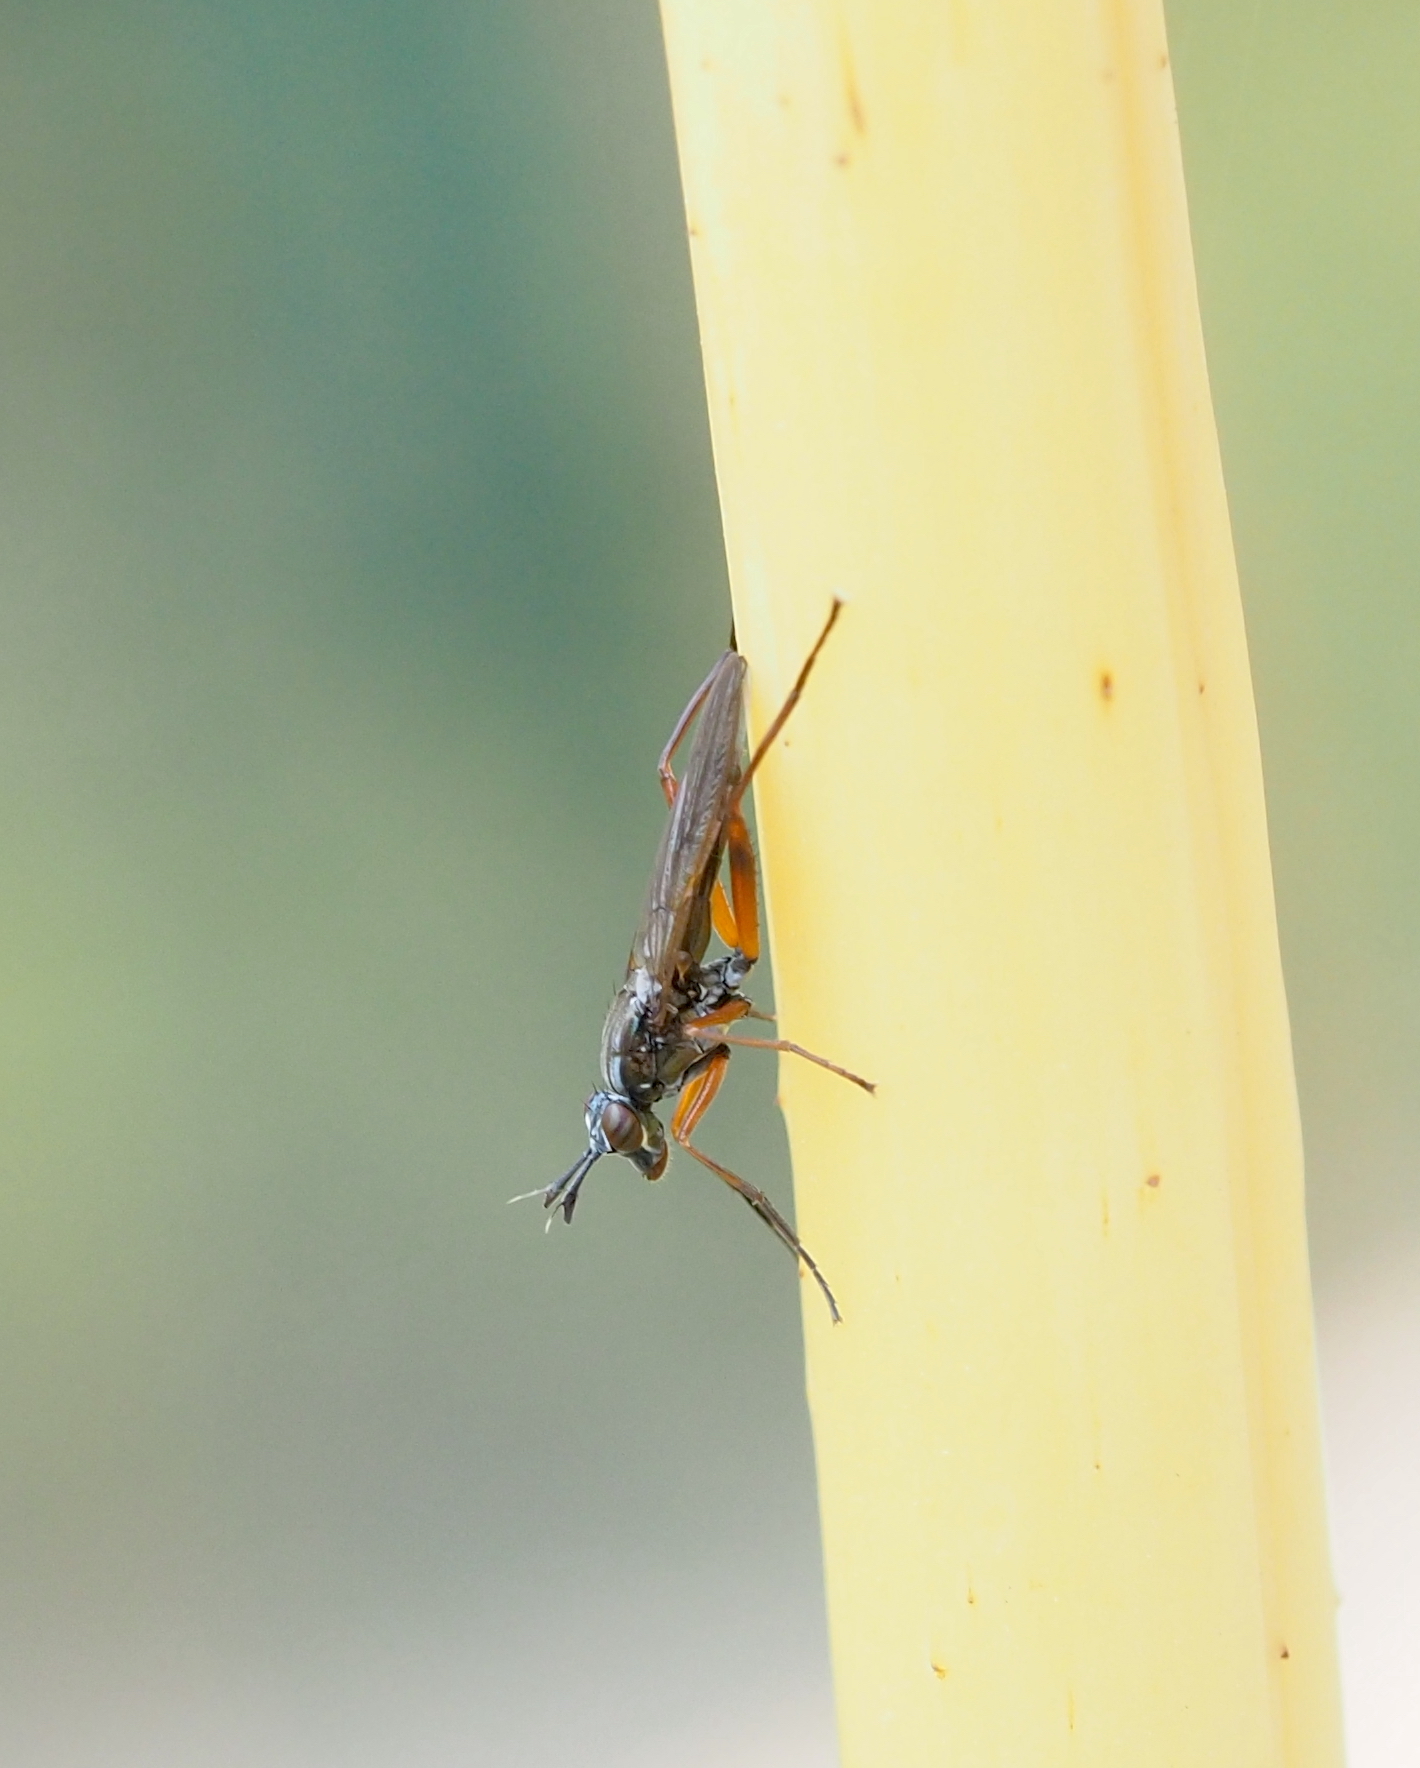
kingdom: Animalia
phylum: Arthropoda
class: Insecta
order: Diptera
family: Sciomyzidae
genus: Sepedon
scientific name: Sepedon sphegea
